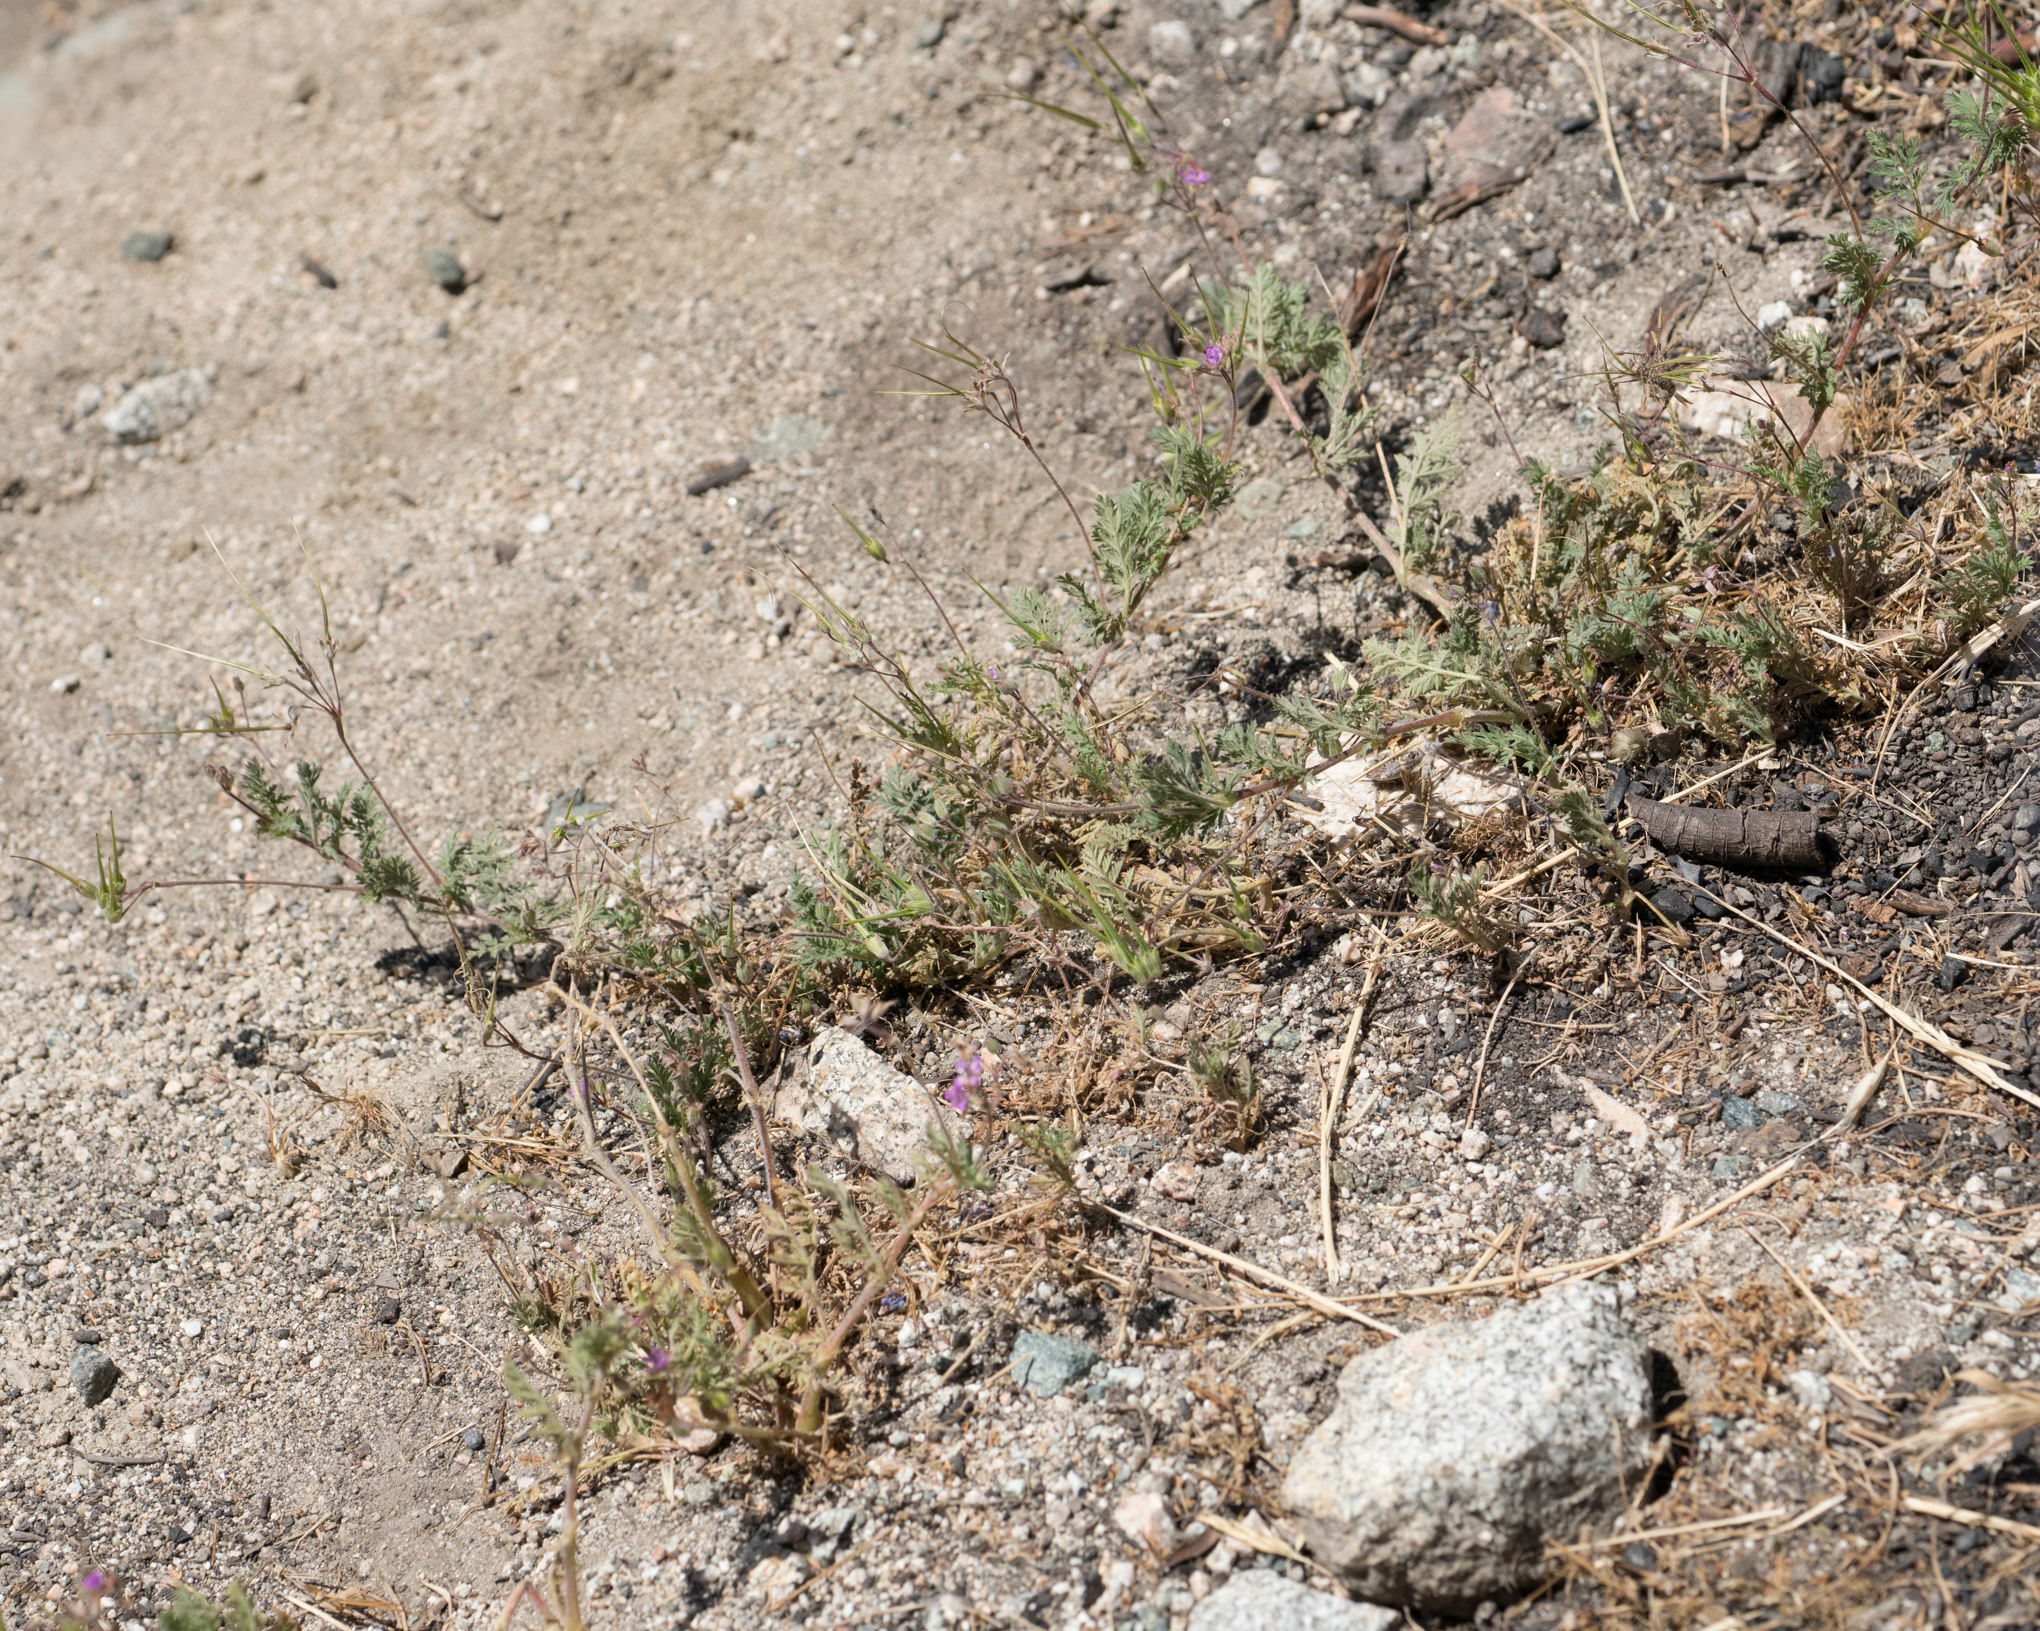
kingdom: Plantae
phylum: Tracheophyta
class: Magnoliopsida
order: Geraniales
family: Geraniaceae
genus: Erodium
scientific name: Erodium cicutarium
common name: Common stork's-bill
